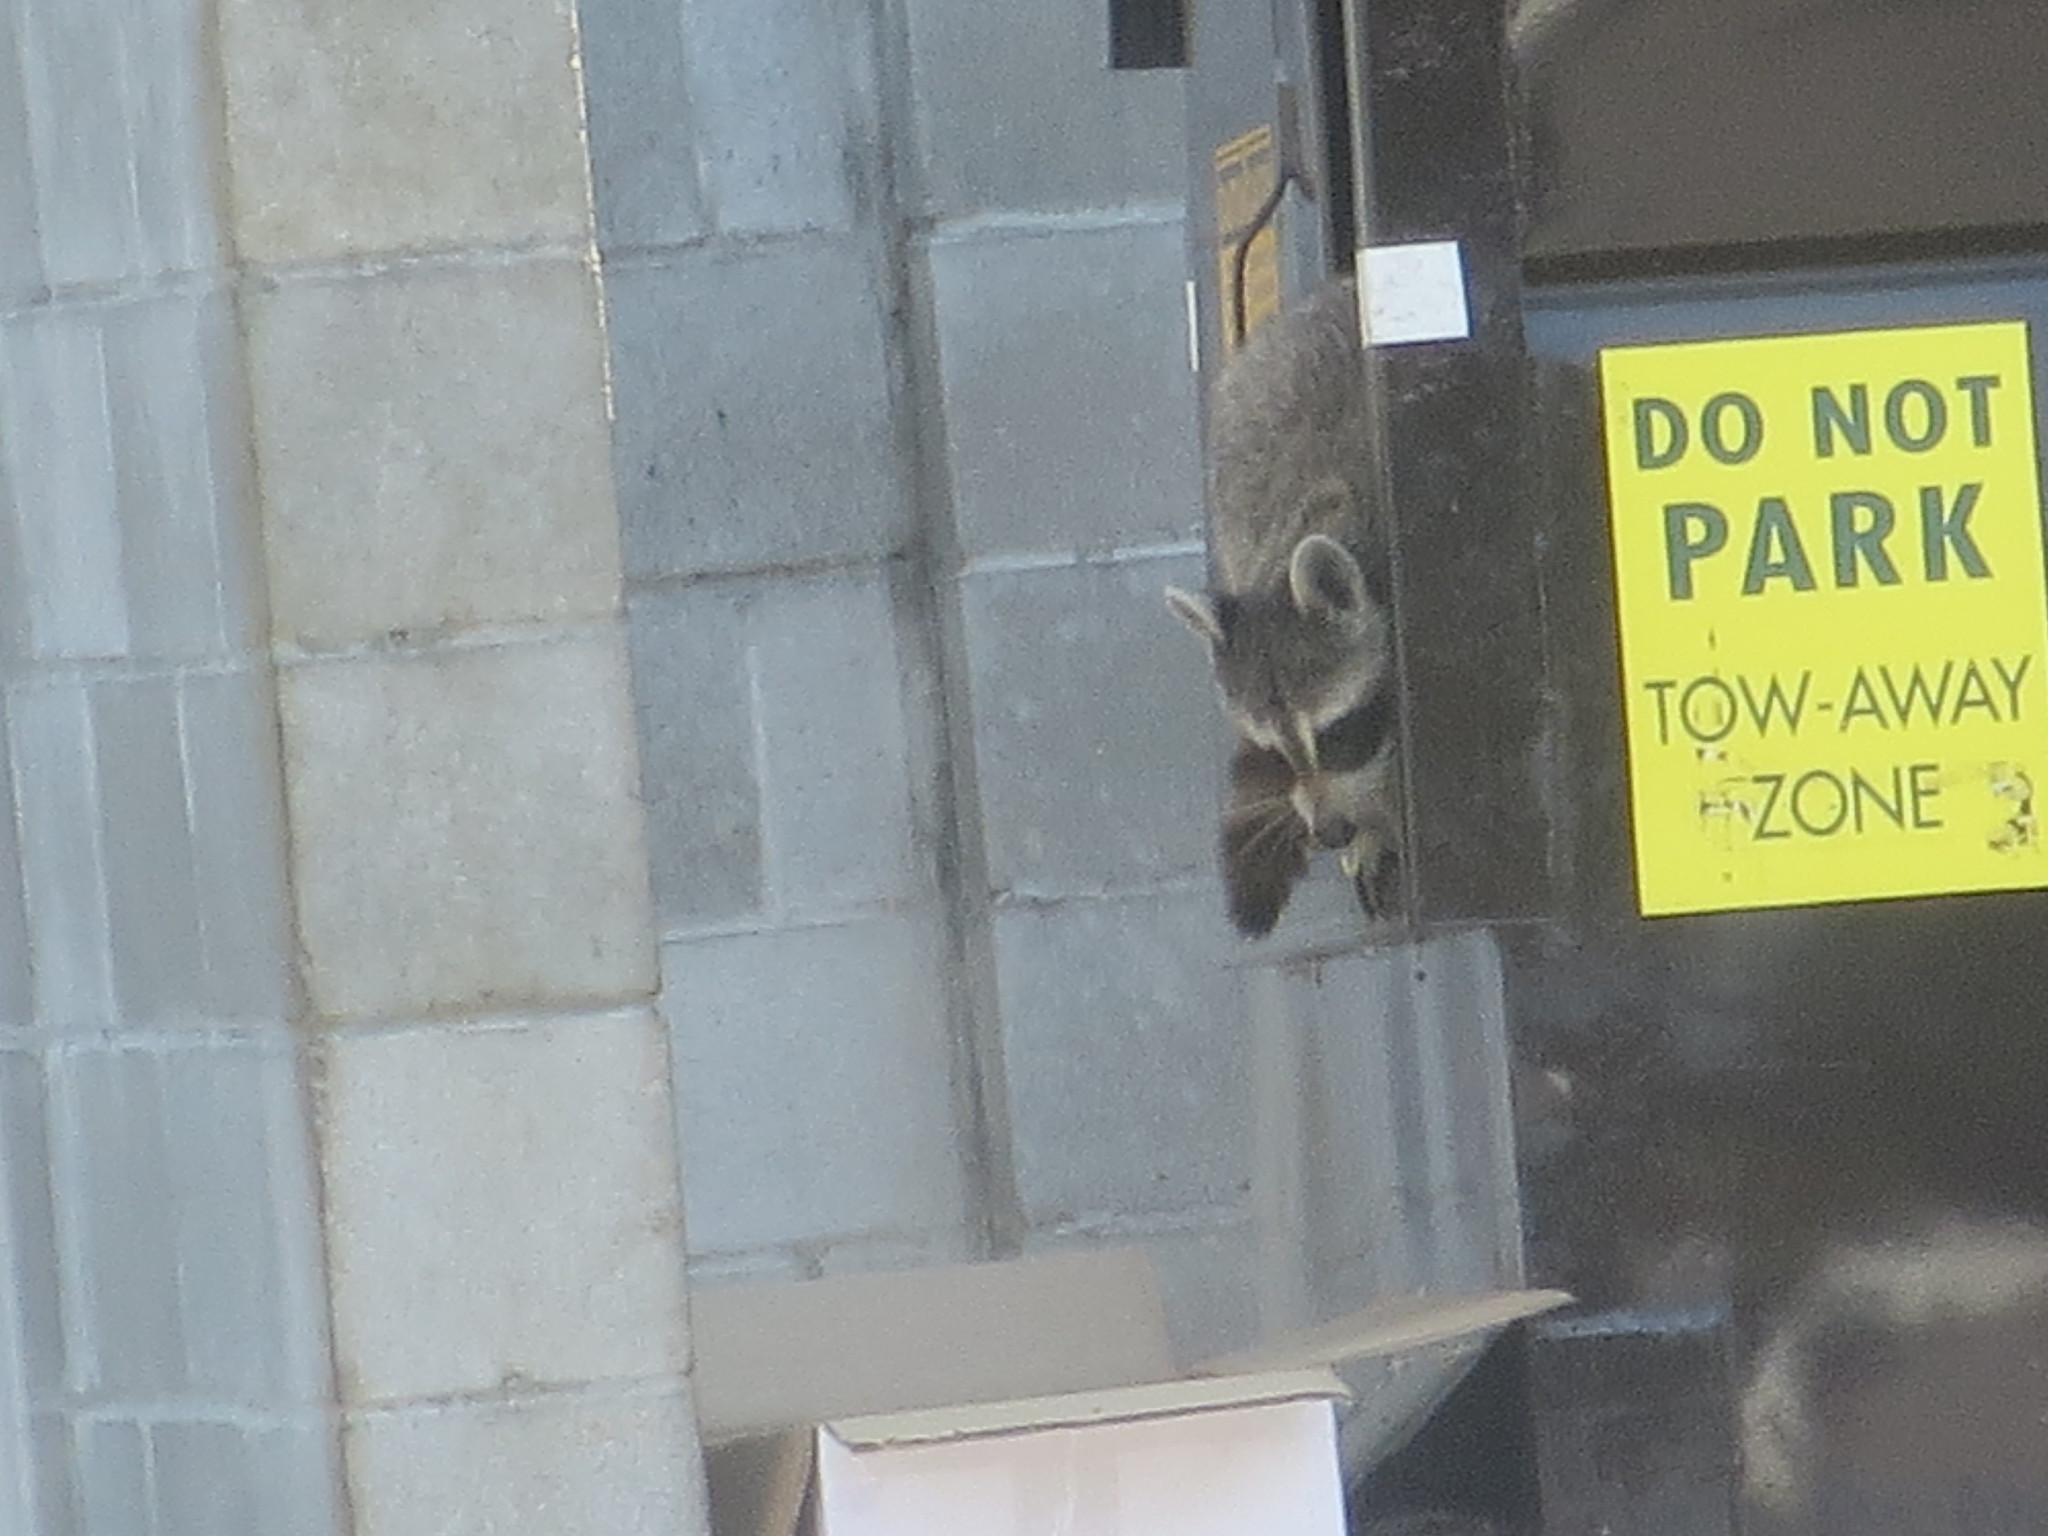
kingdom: Animalia
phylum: Chordata
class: Mammalia
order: Carnivora
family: Procyonidae
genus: Procyon
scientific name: Procyon lotor
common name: Raccoon
